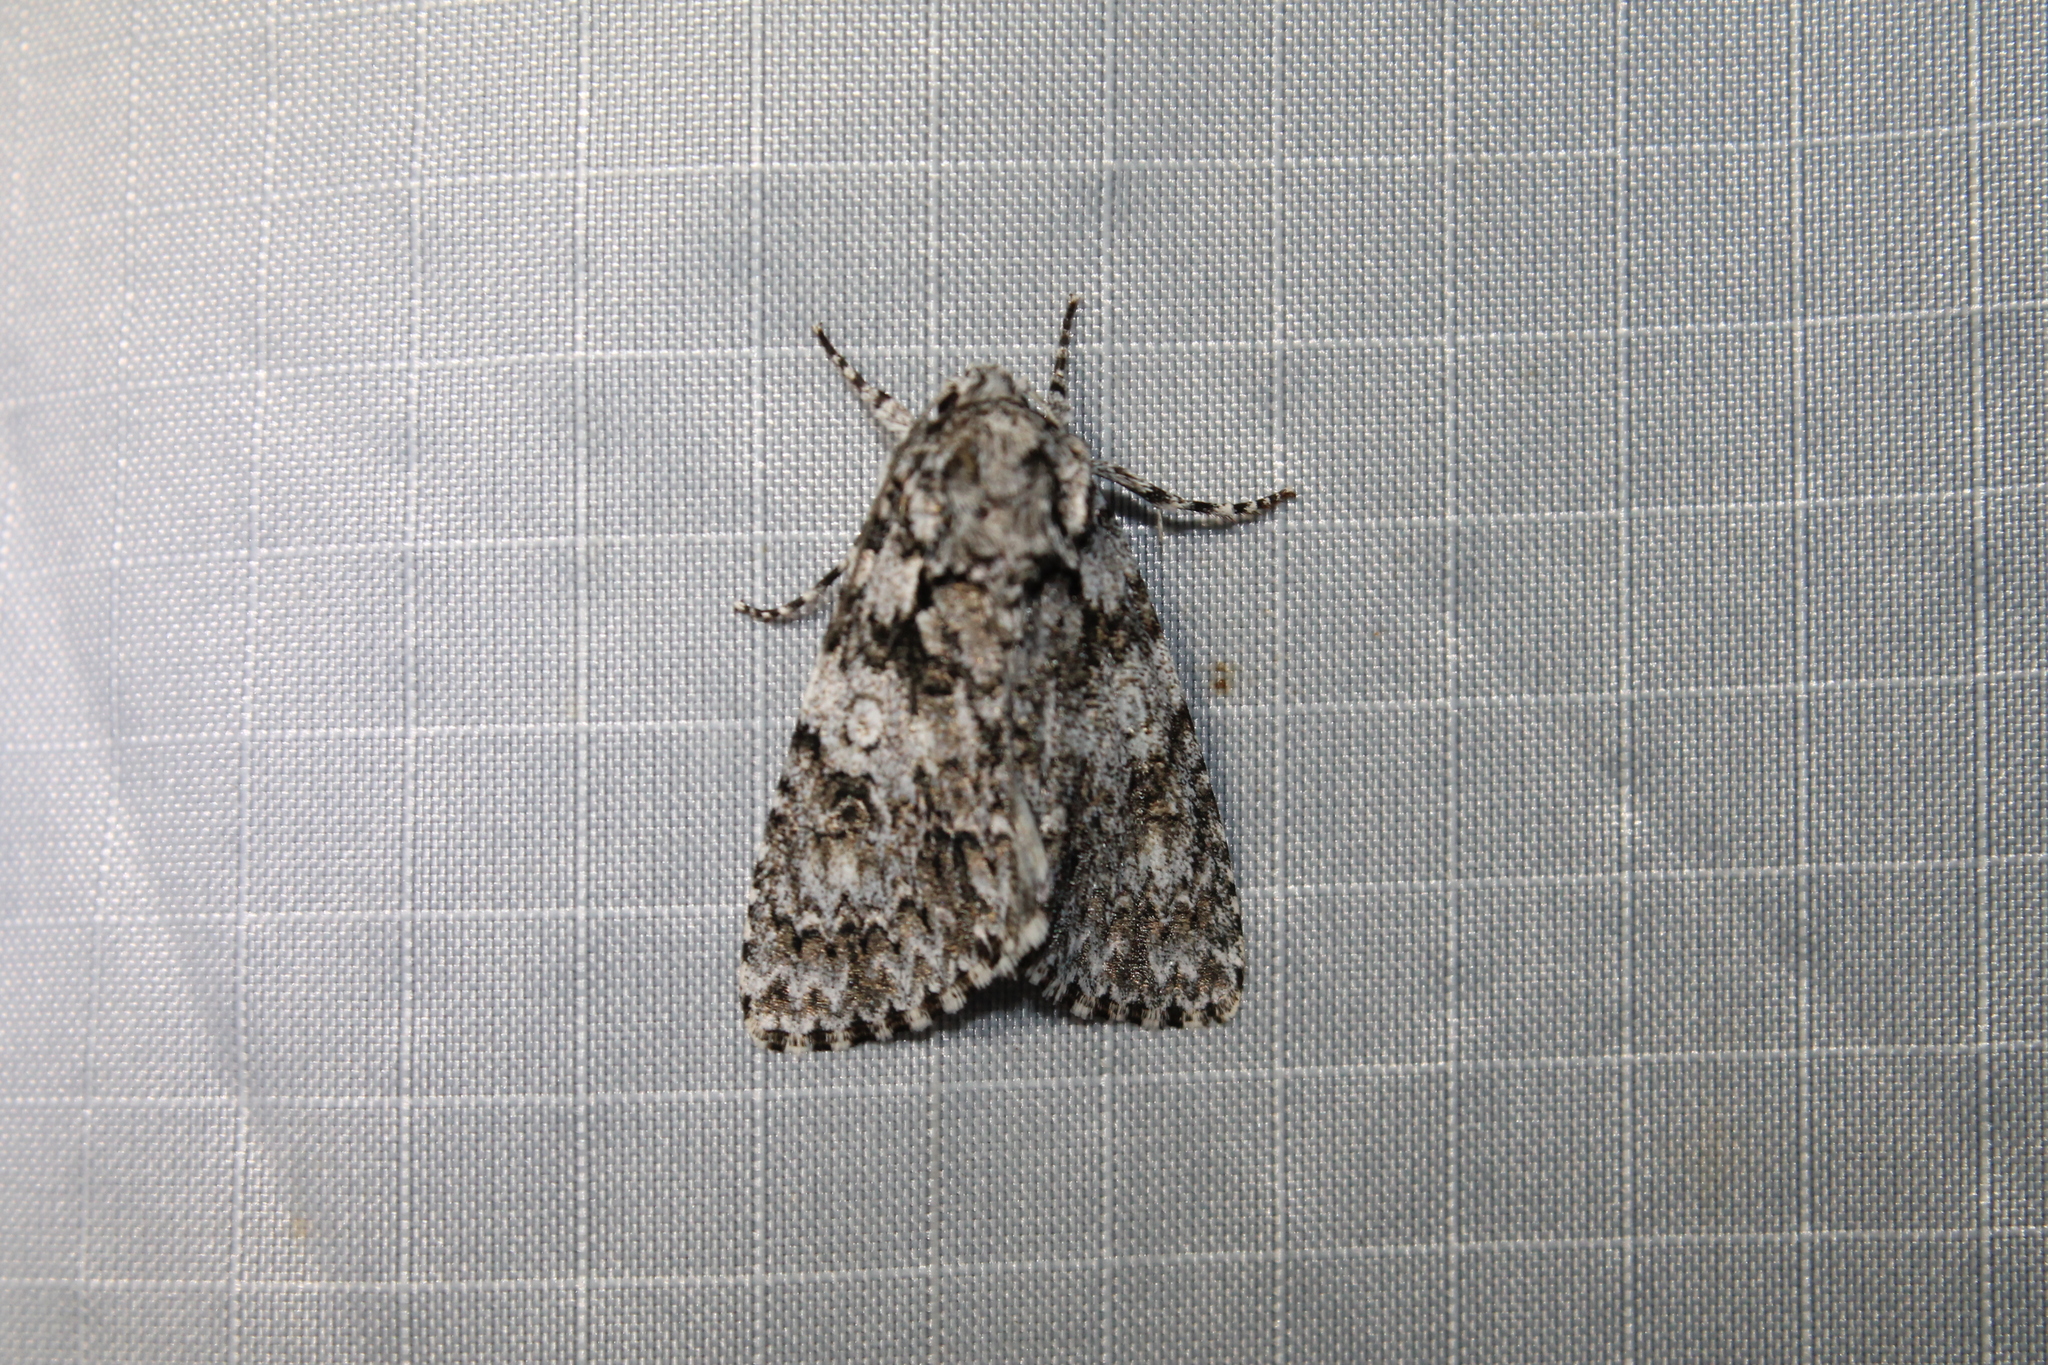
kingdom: Animalia
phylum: Arthropoda
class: Insecta
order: Lepidoptera
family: Noctuidae
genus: Acronicta
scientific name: Acronicta marmorata
